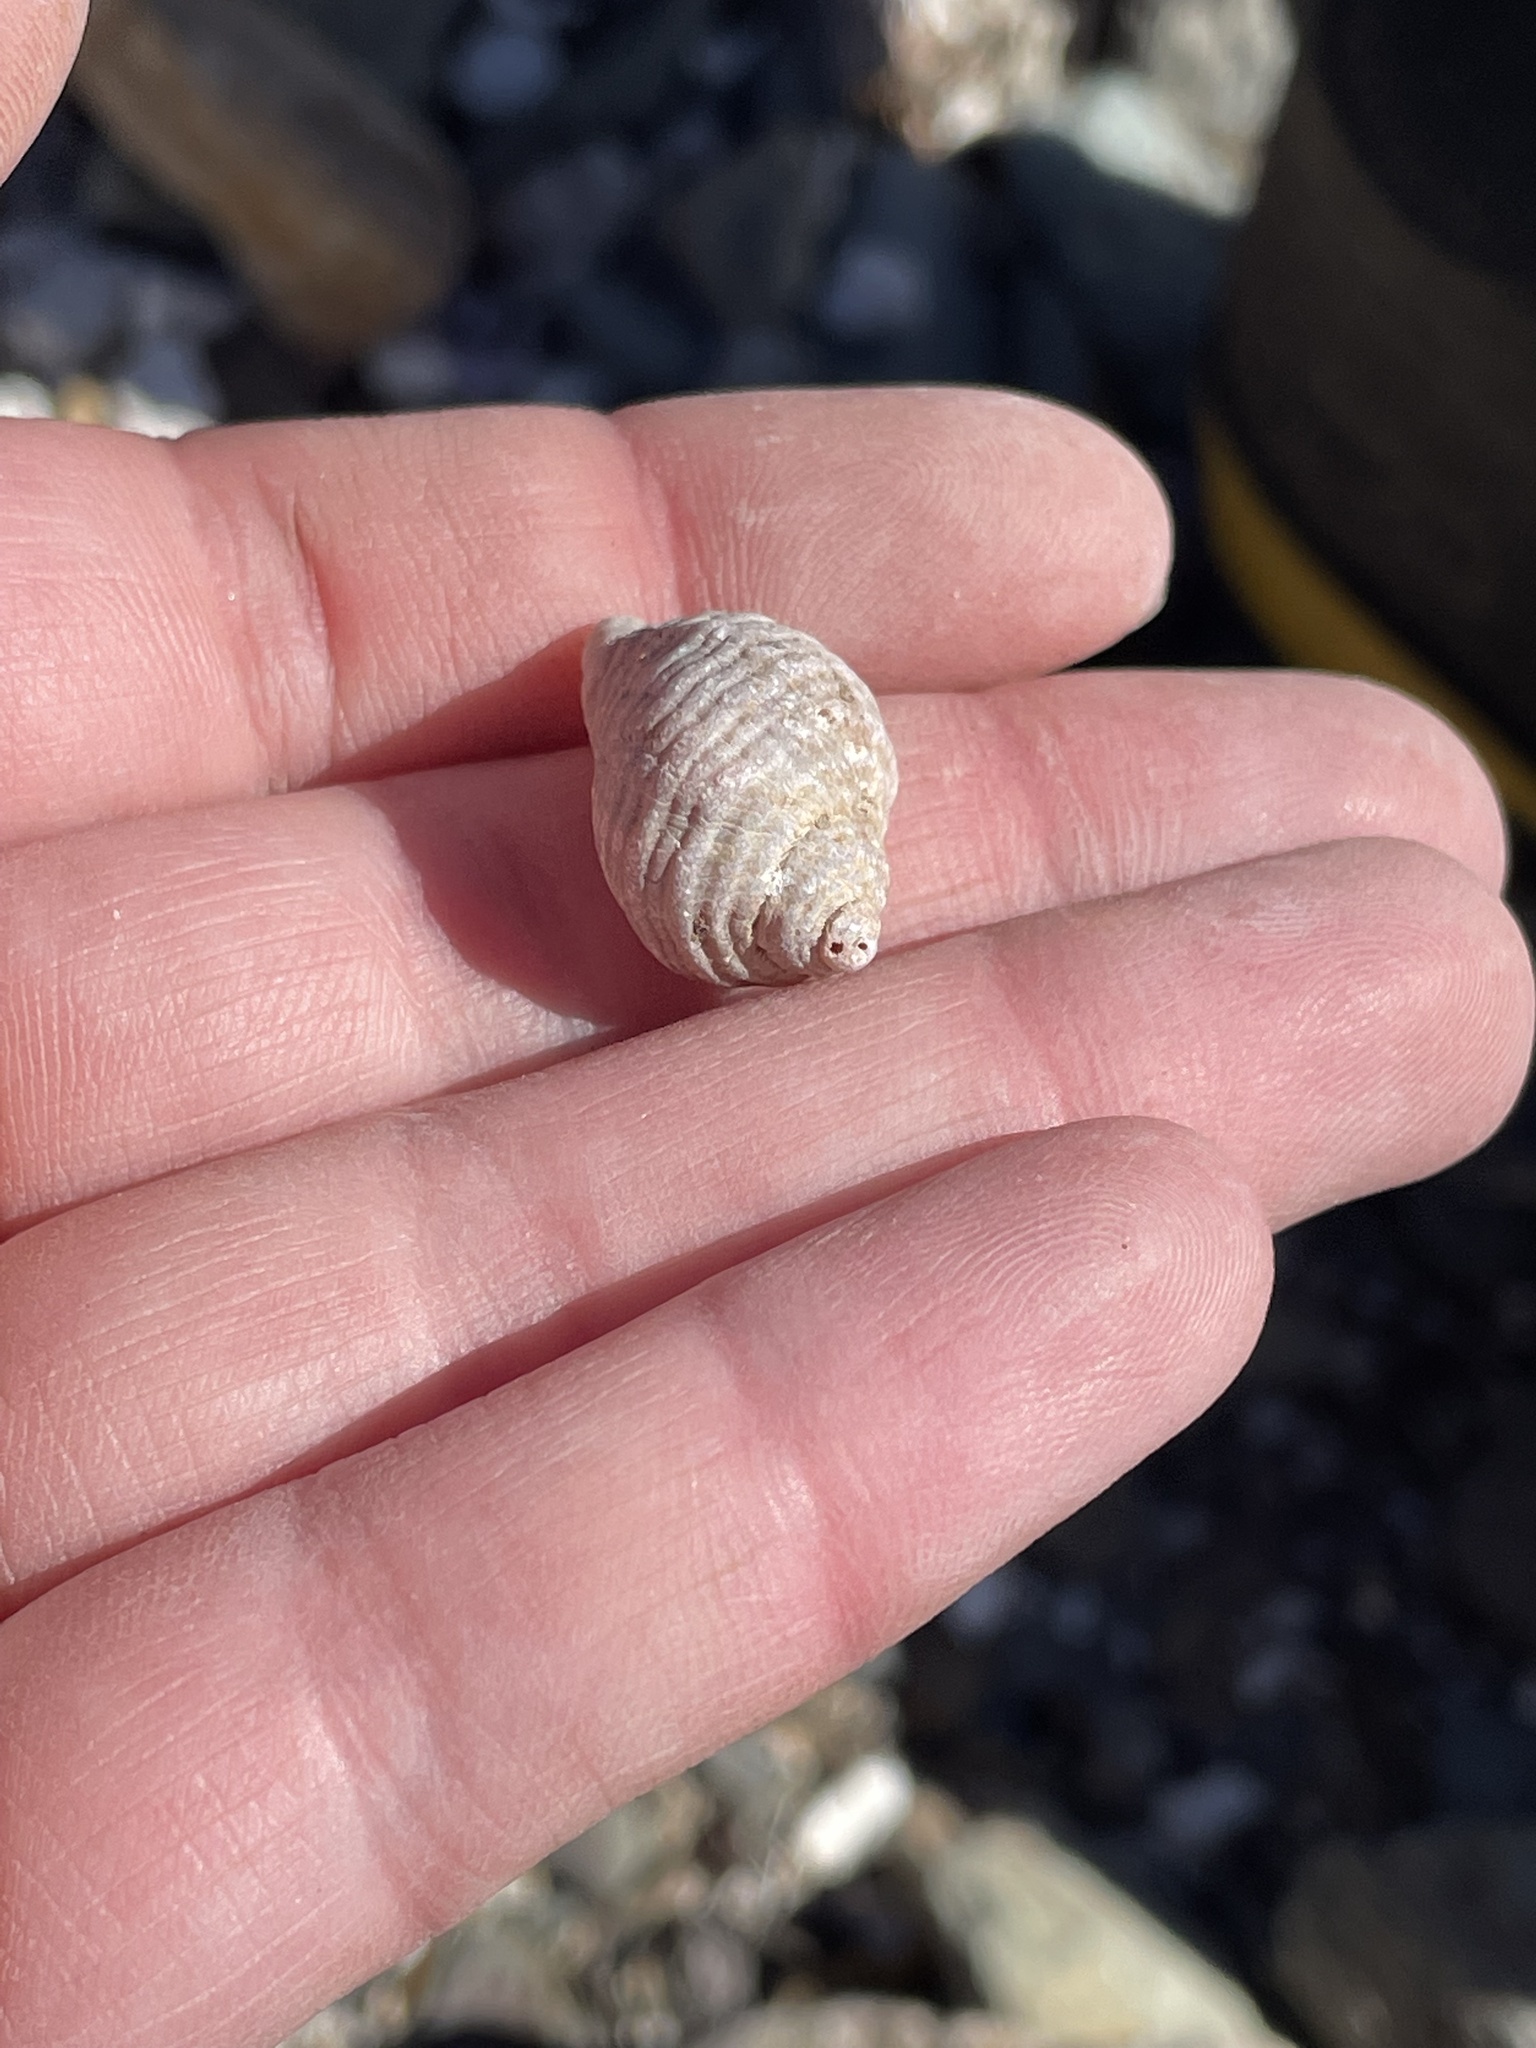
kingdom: Animalia
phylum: Mollusca
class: Gastropoda
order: Neogastropoda
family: Muricidae
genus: Nucella
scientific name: Nucella lapillus
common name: Dog whelk
